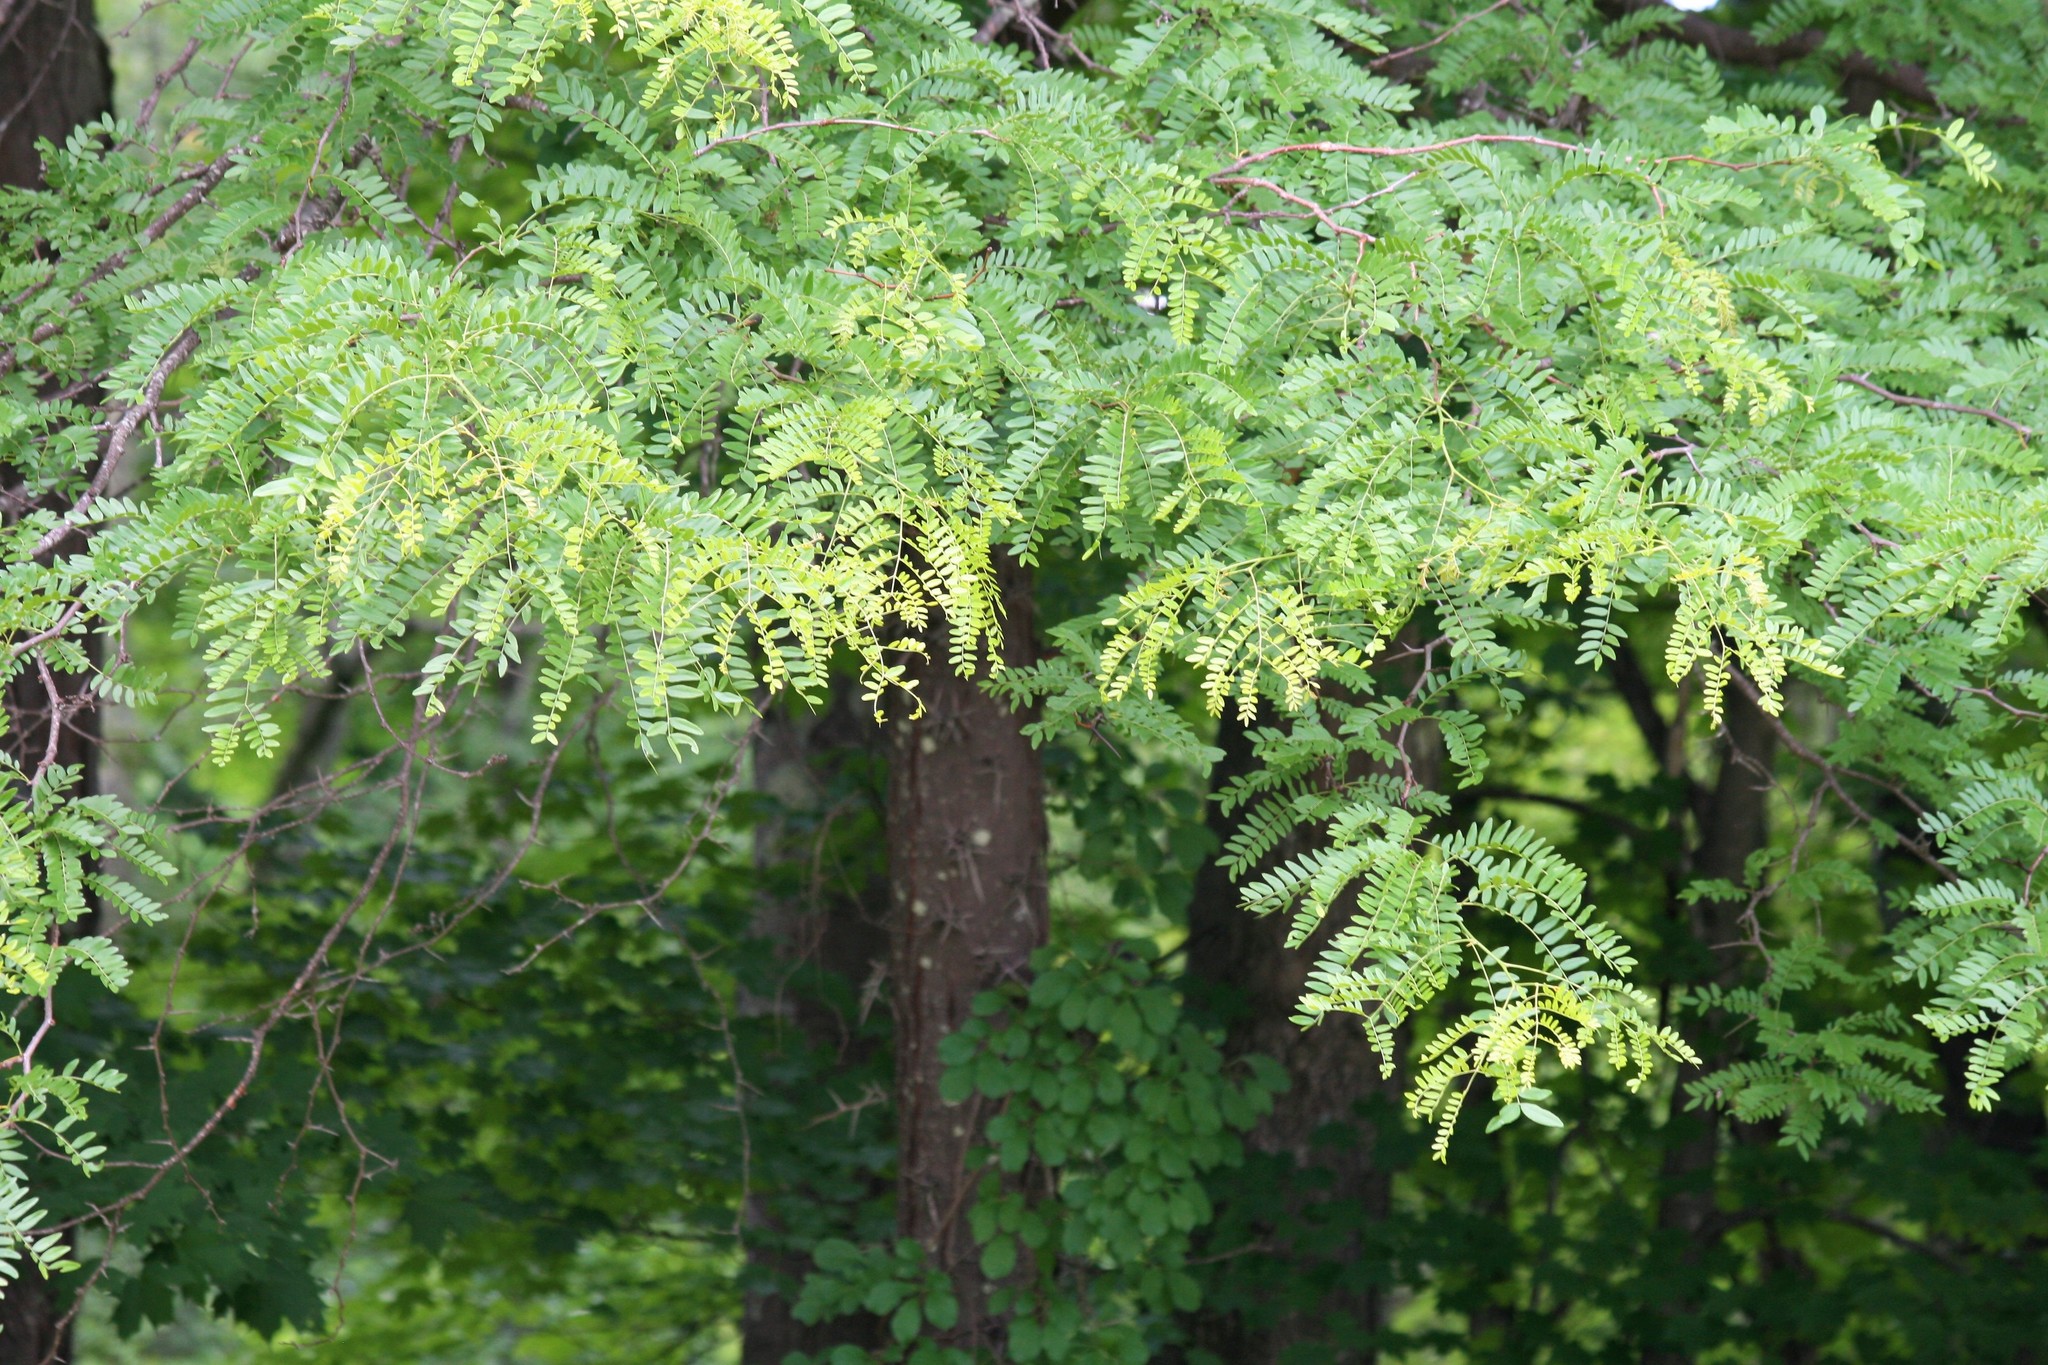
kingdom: Plantae
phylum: Tracheophyta
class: Magnoliopsida
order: Fabales
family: Fabaceae
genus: Gleditsia
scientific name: Gleditsia triacanthos
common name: Common honeylocust
